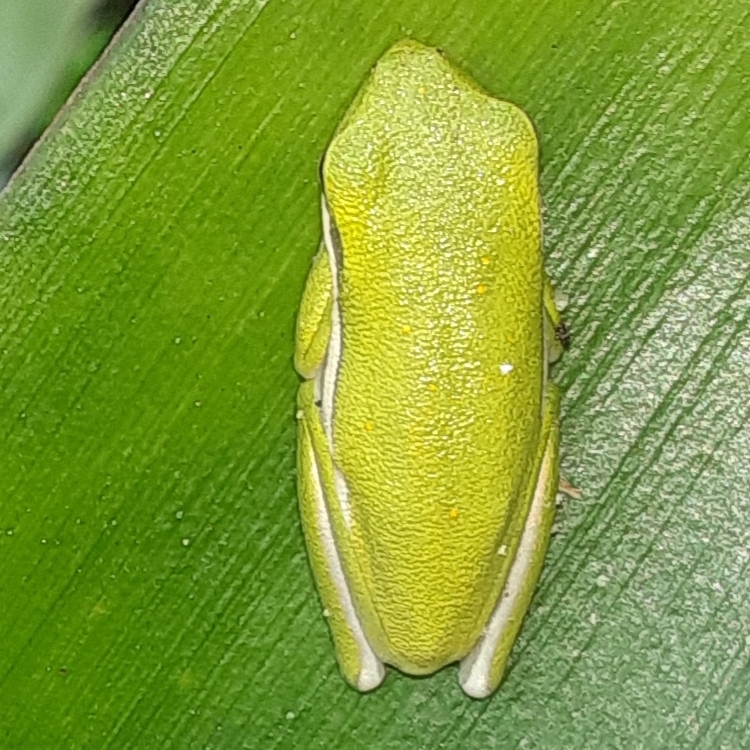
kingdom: Animalia
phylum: Chordata
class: Amphibia
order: Anura
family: Hylidae
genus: Dryophytes
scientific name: Dryophytes cinereus
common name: Green treefrog
